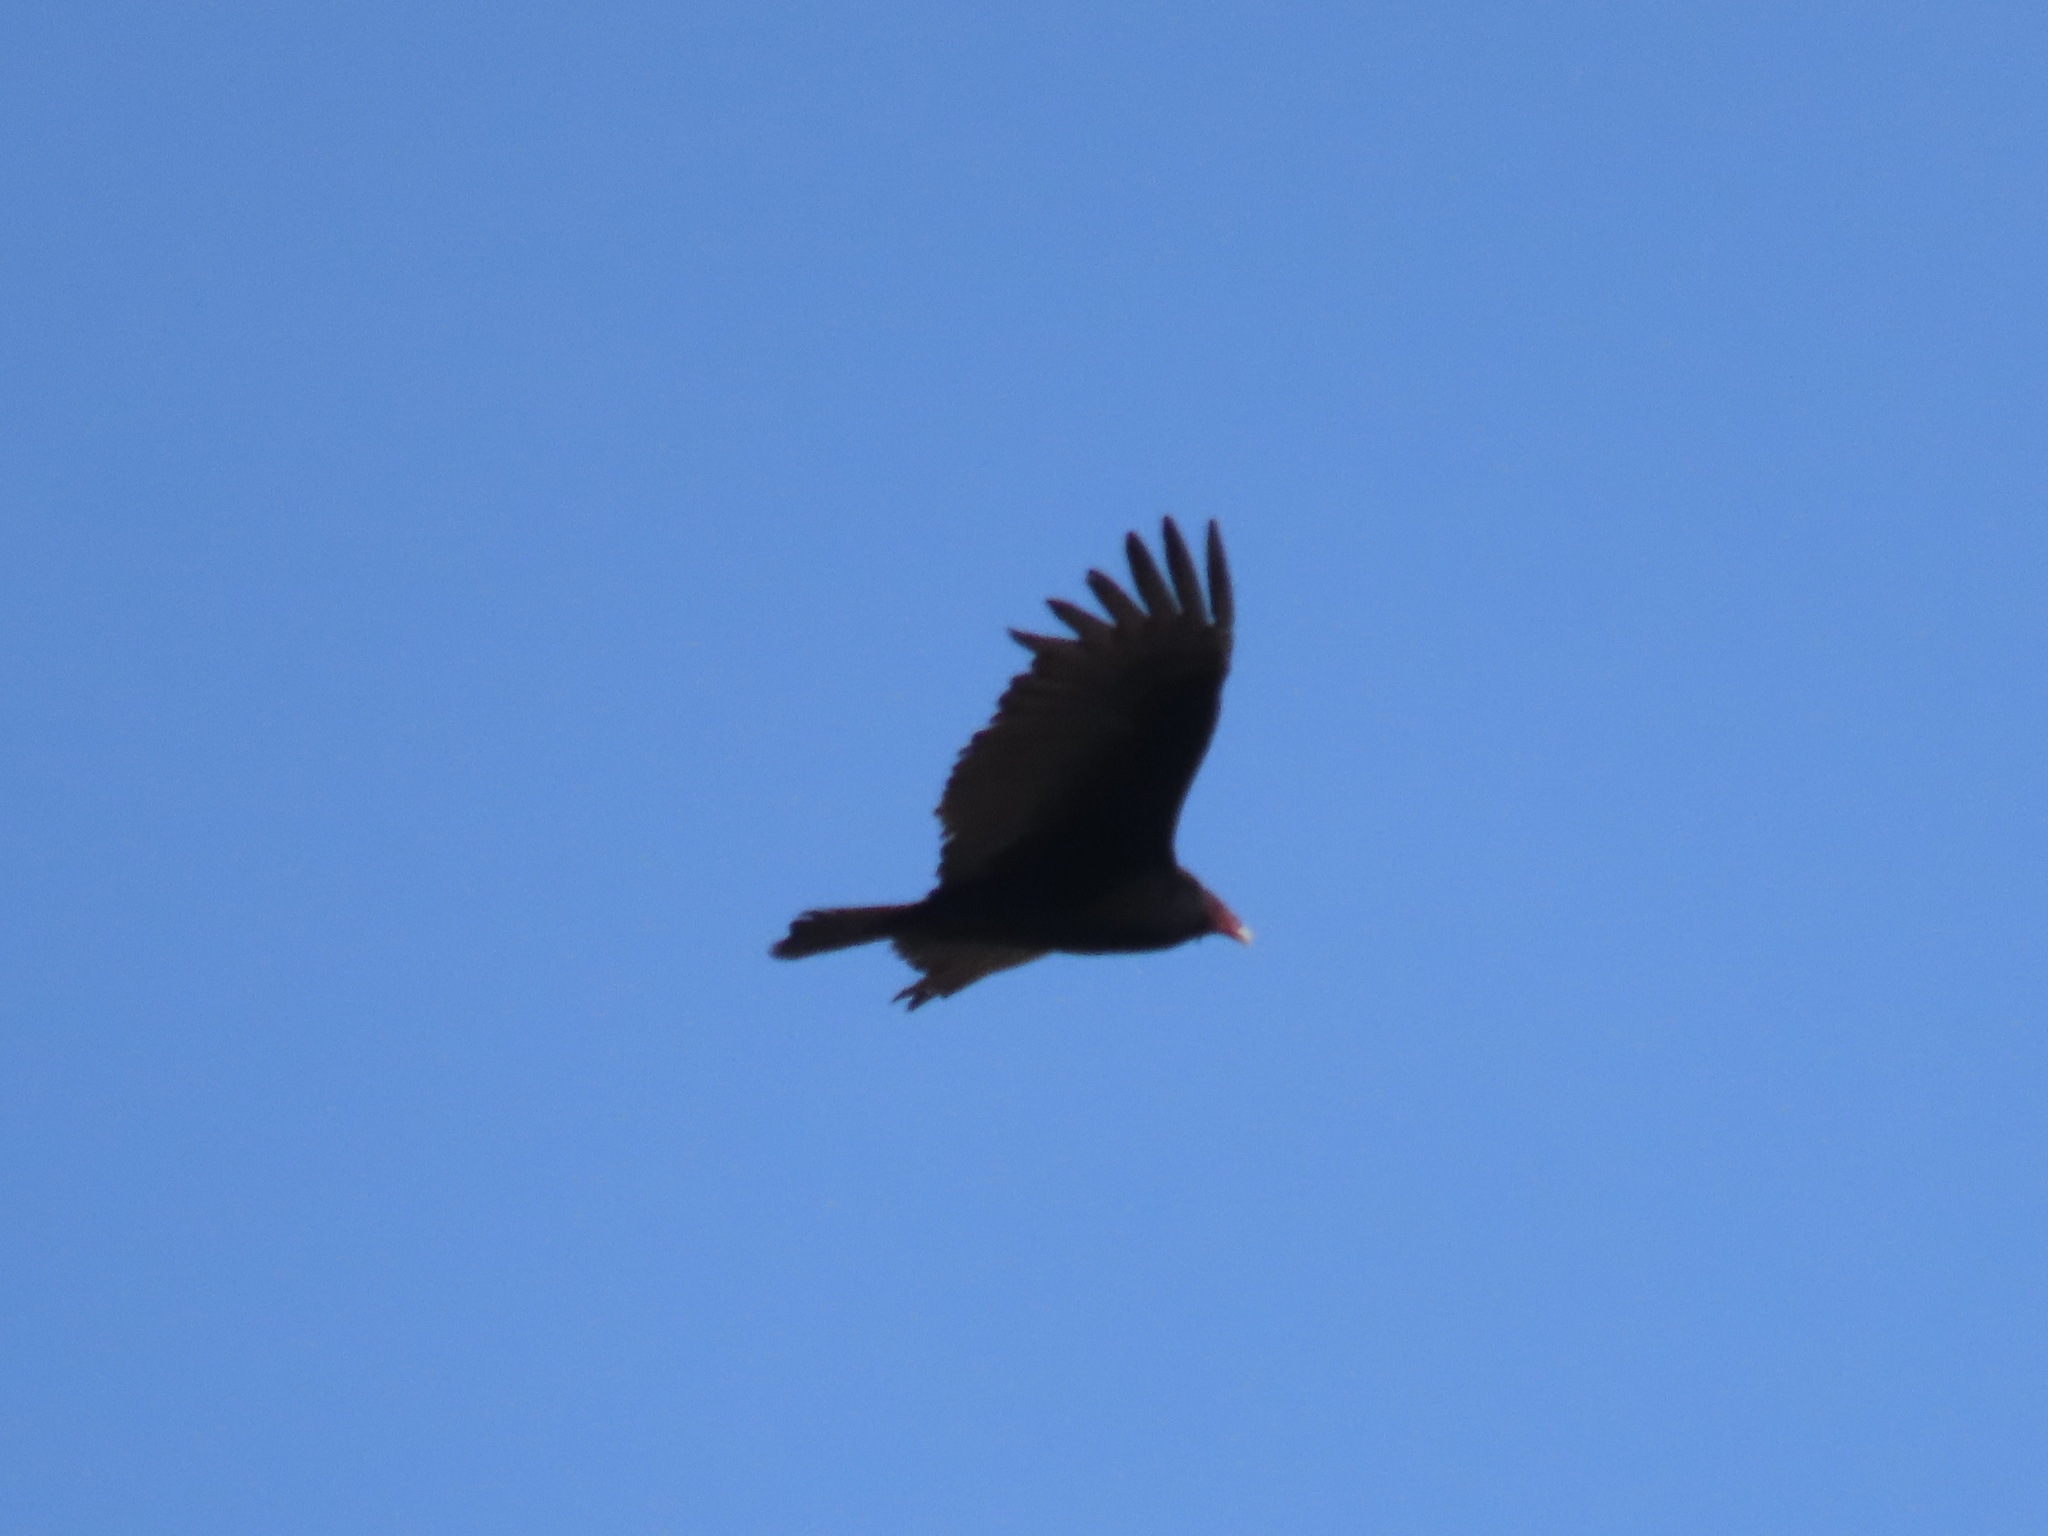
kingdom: Animalia
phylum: Chordata
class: Aves
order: Accipitriformes
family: Cathartidae
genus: Cathartes
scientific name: Cathartes aura
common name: Turkey vulture
